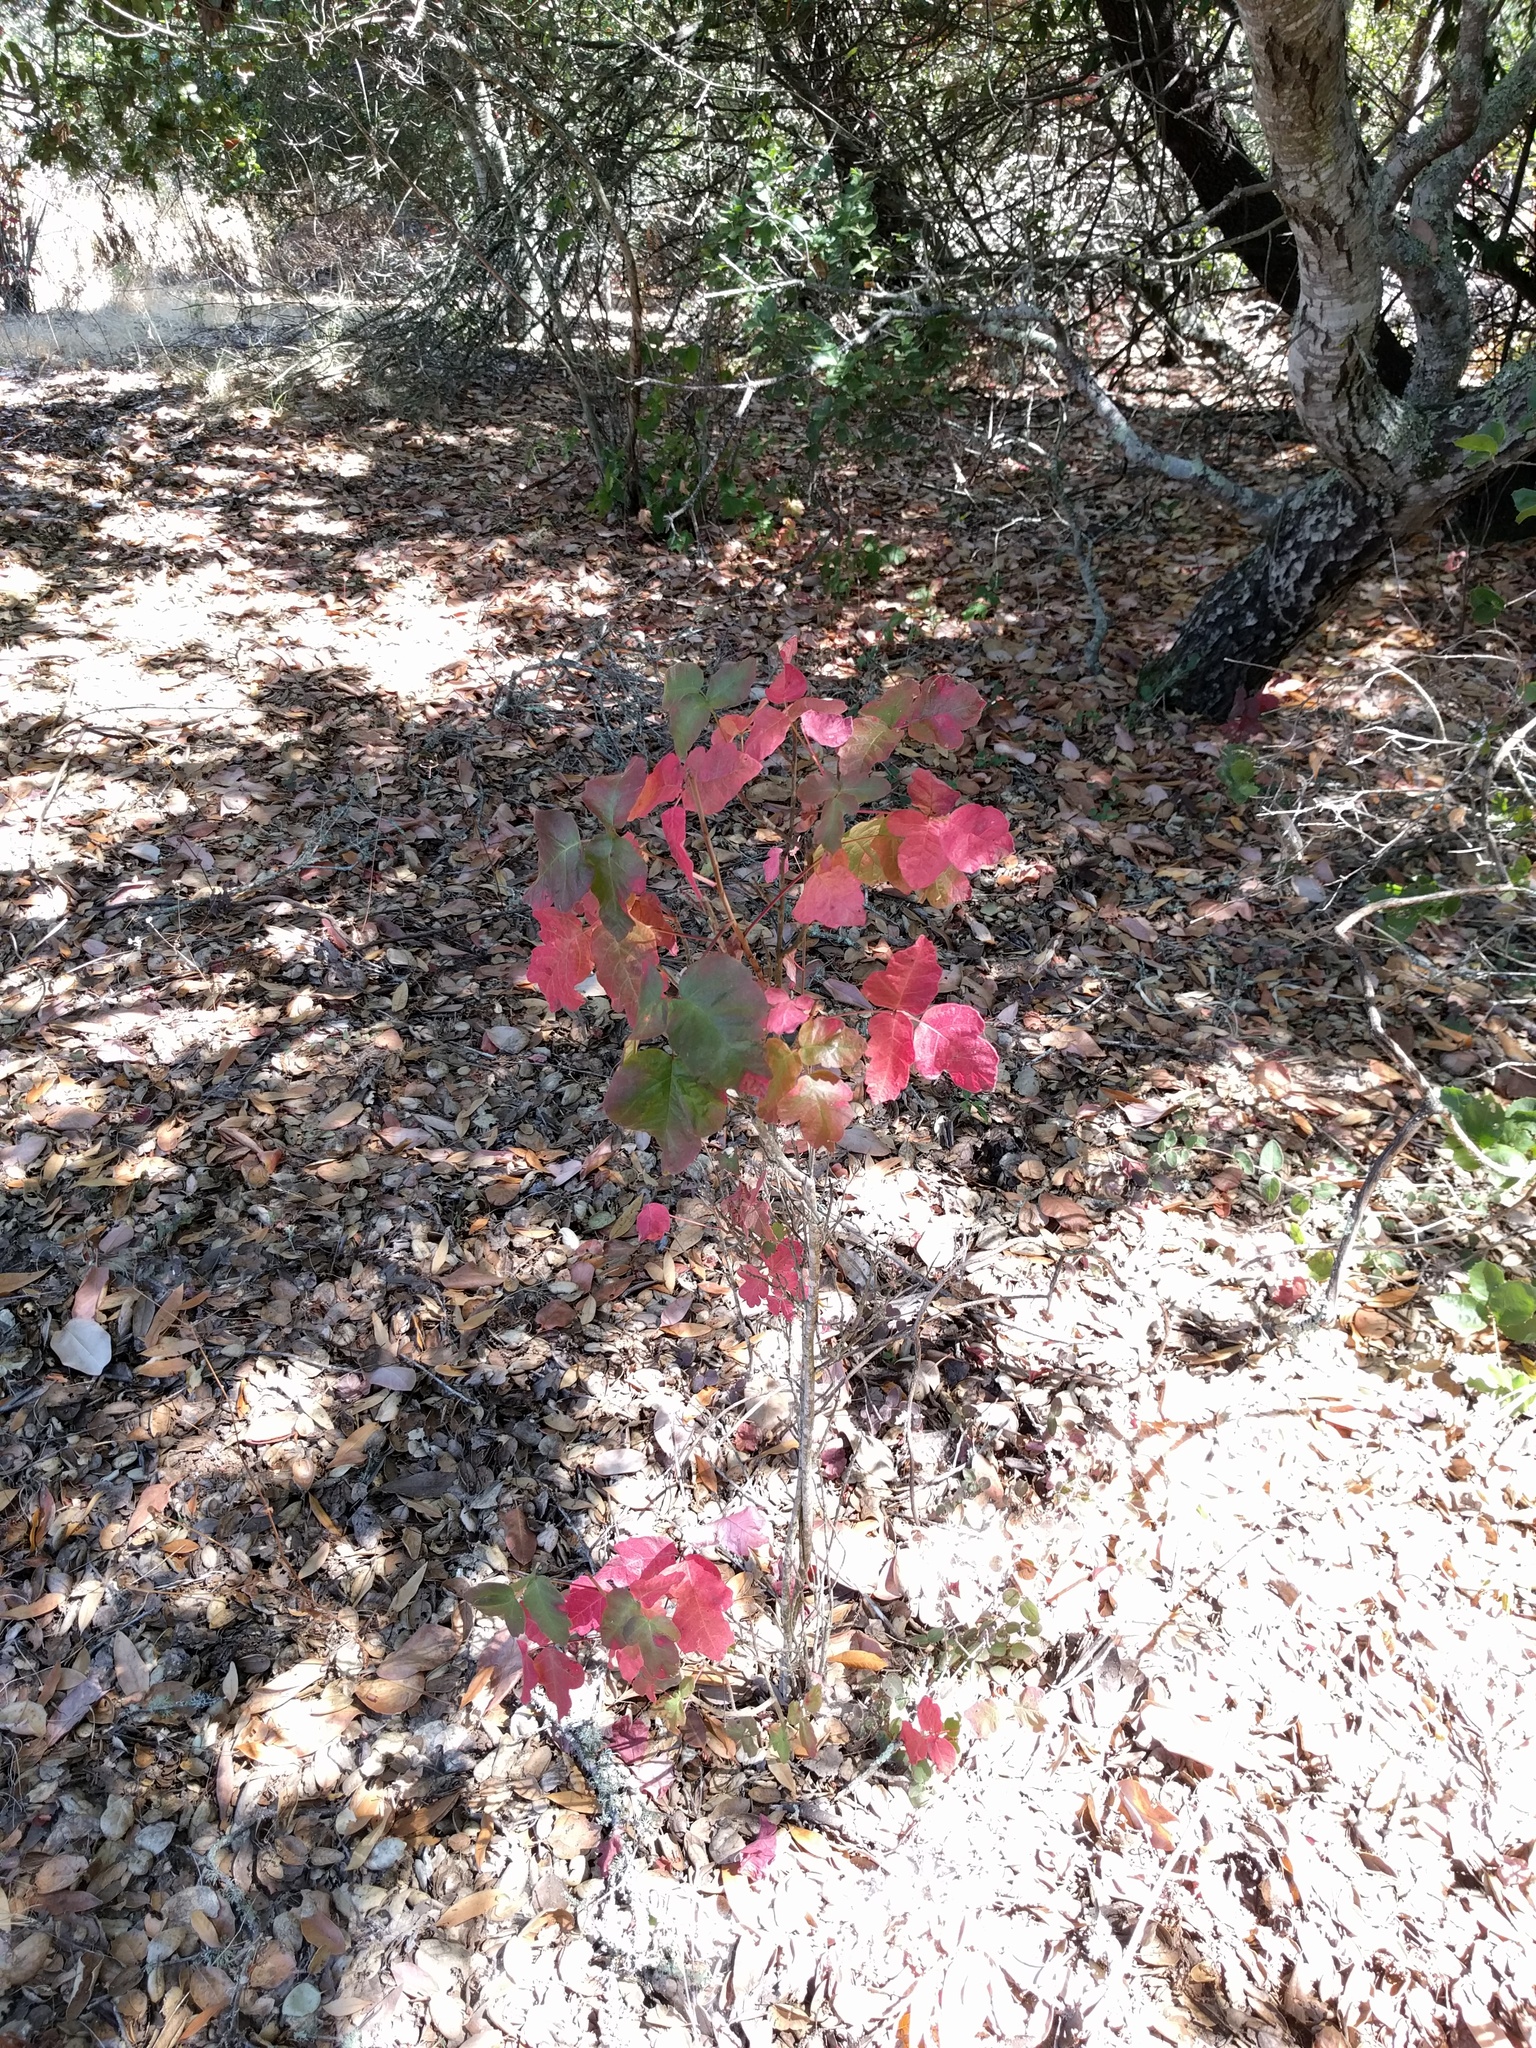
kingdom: Plantae
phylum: Tracheophyta
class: Magnoliopsida
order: Sapindales
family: Anacardiaceae
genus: Toxicodendron
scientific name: Toxicodendron diversilobum
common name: Pacific poison-oak
